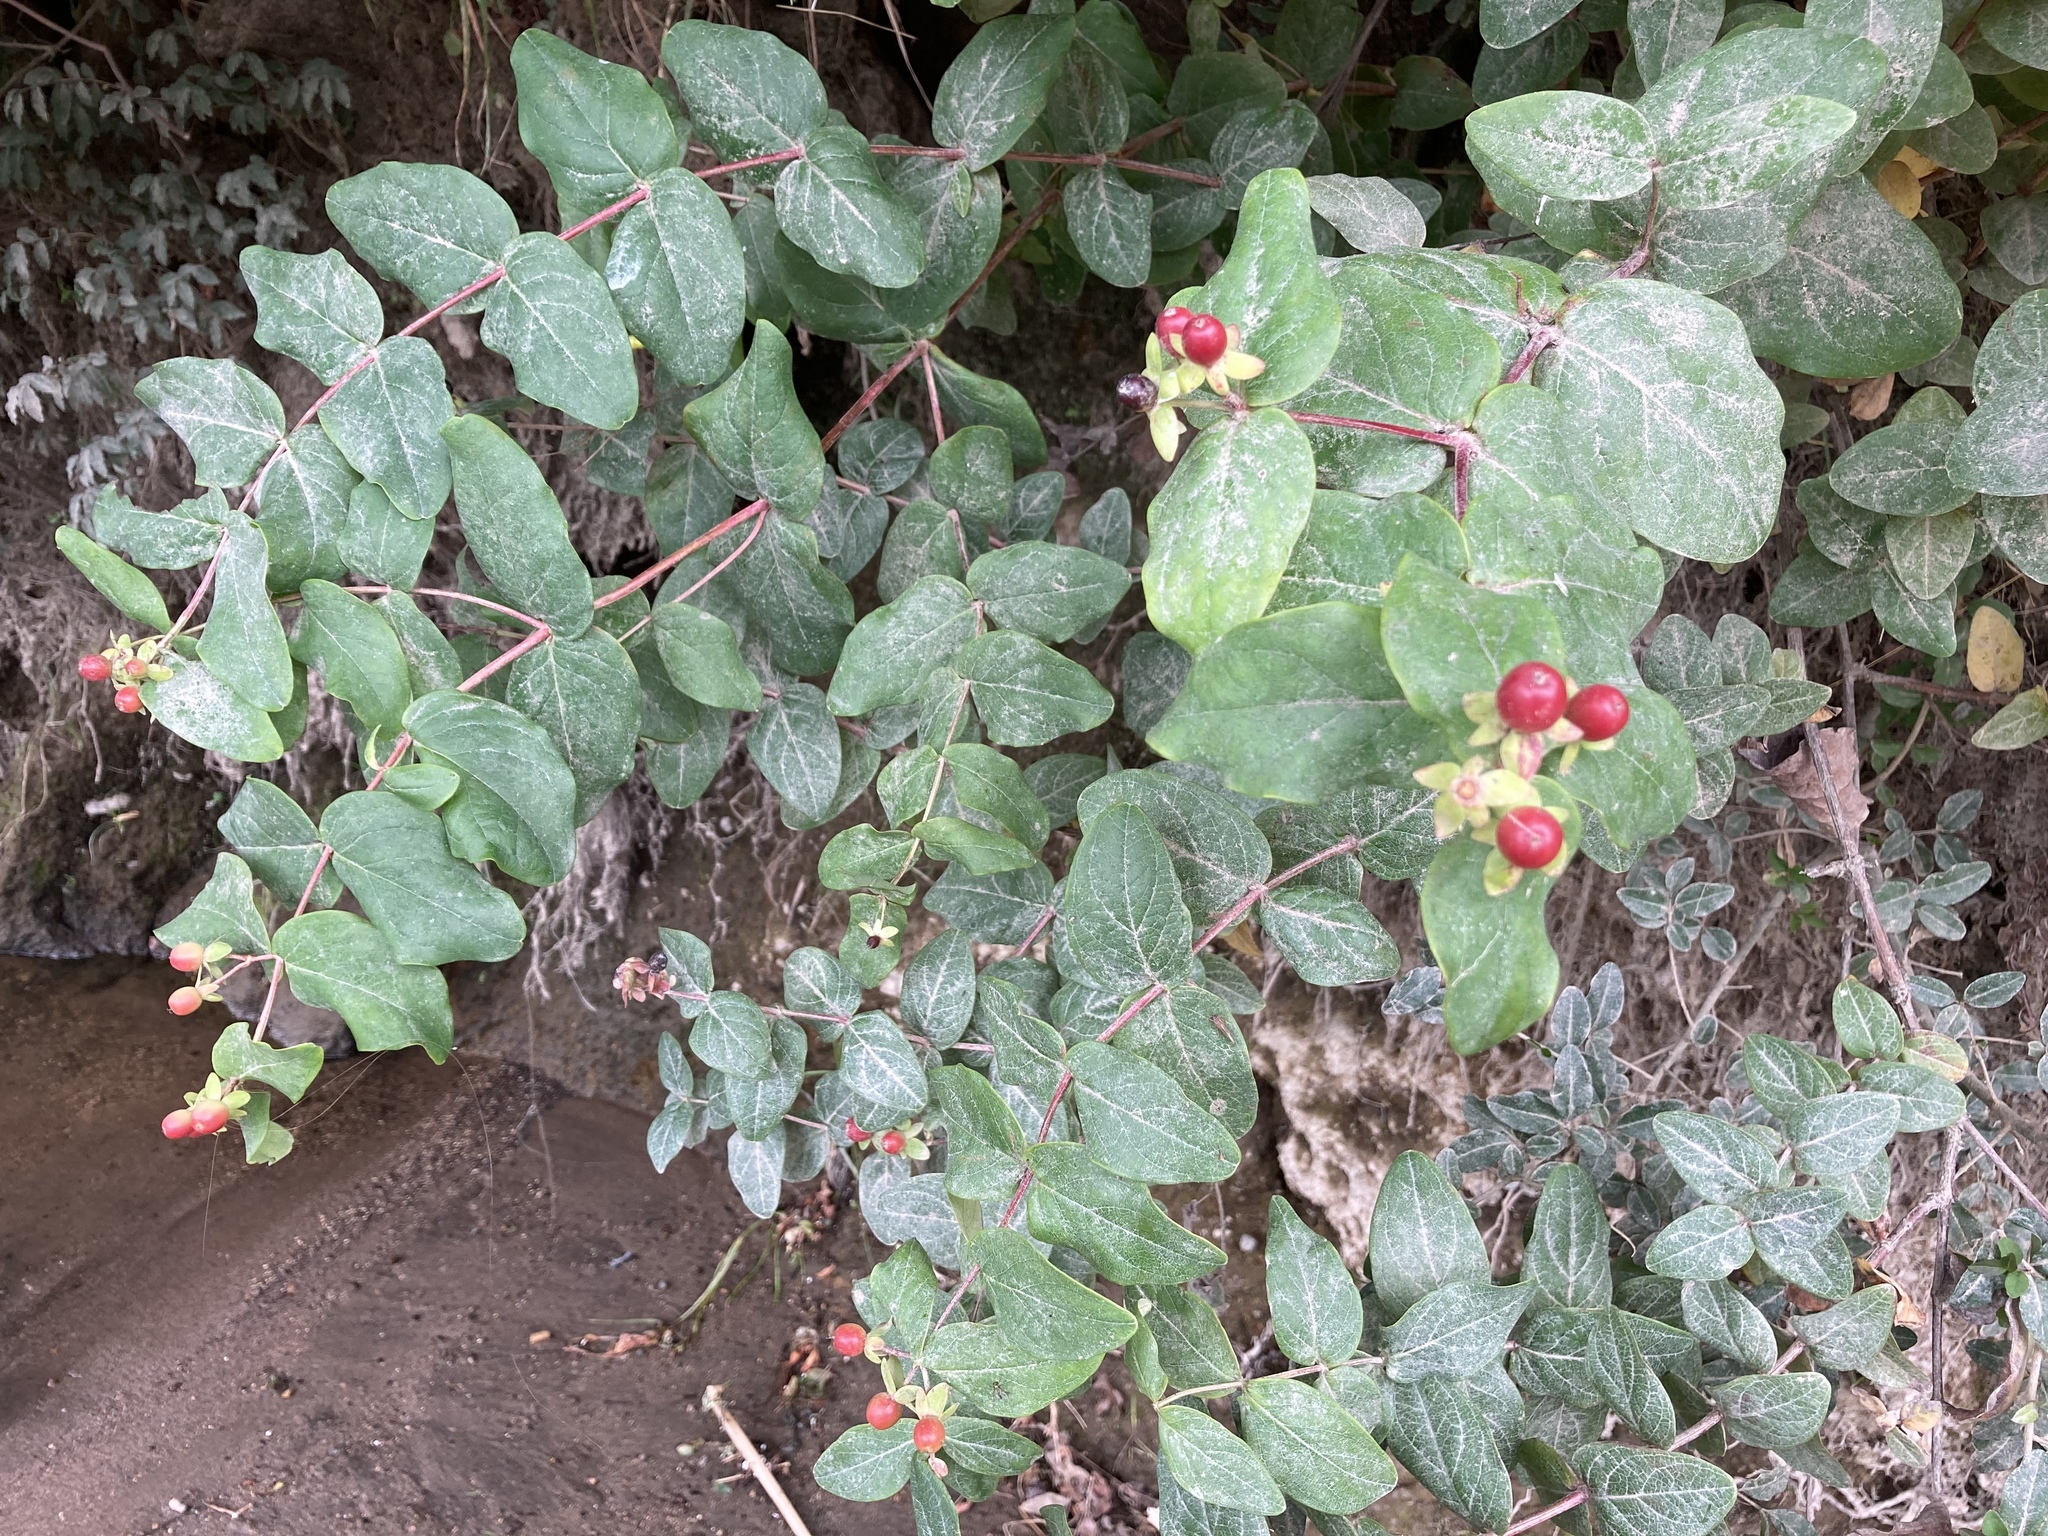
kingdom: Plantae
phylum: Tracheophyta
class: Magnoliopsida
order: Malpighiales
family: Hypericaceae
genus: Hypericum
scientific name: Hypericum androsaemum
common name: Sweet-amber
